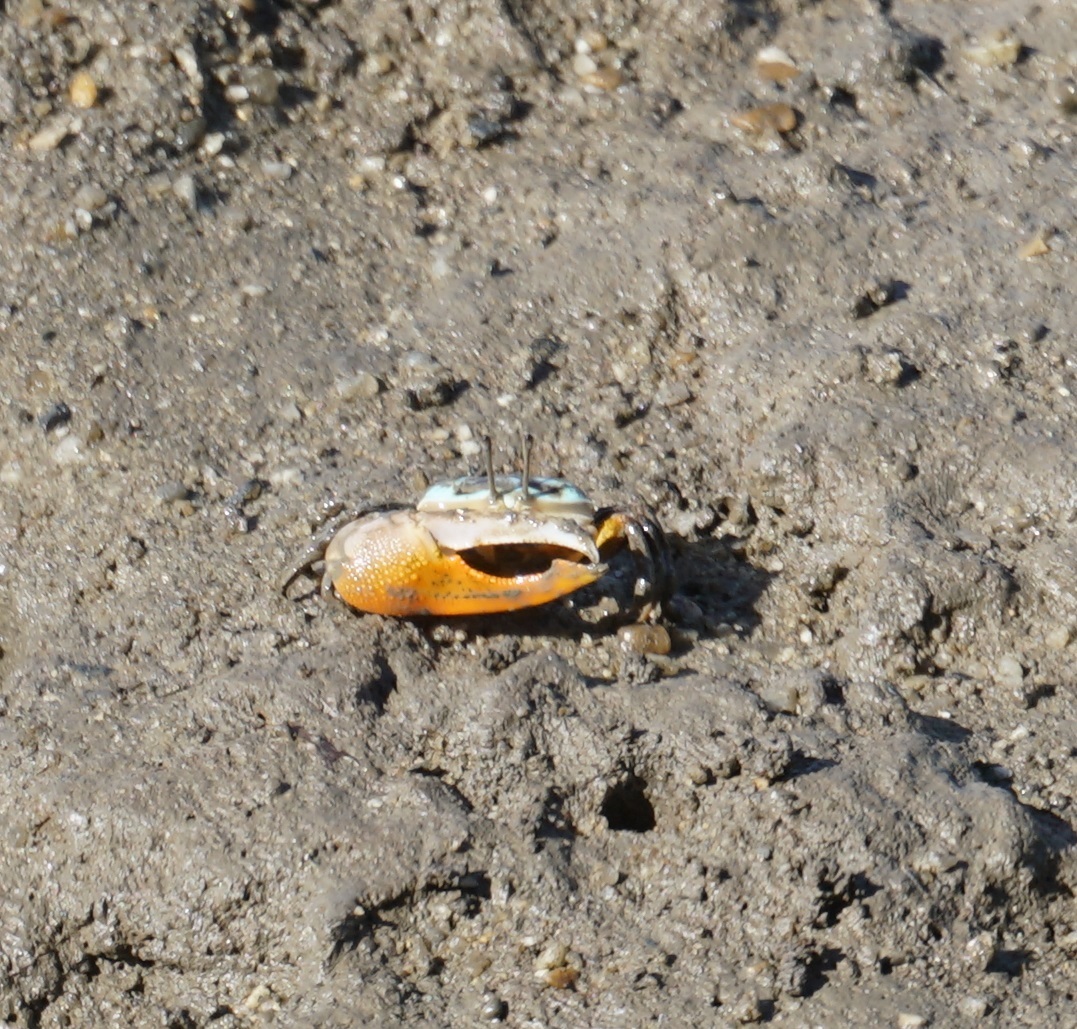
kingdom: Animalia
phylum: Arthropoda
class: Malacostraca
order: Decapoda
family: Ocypodidae
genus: Gelasimus
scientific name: Gelasimus vomeris
